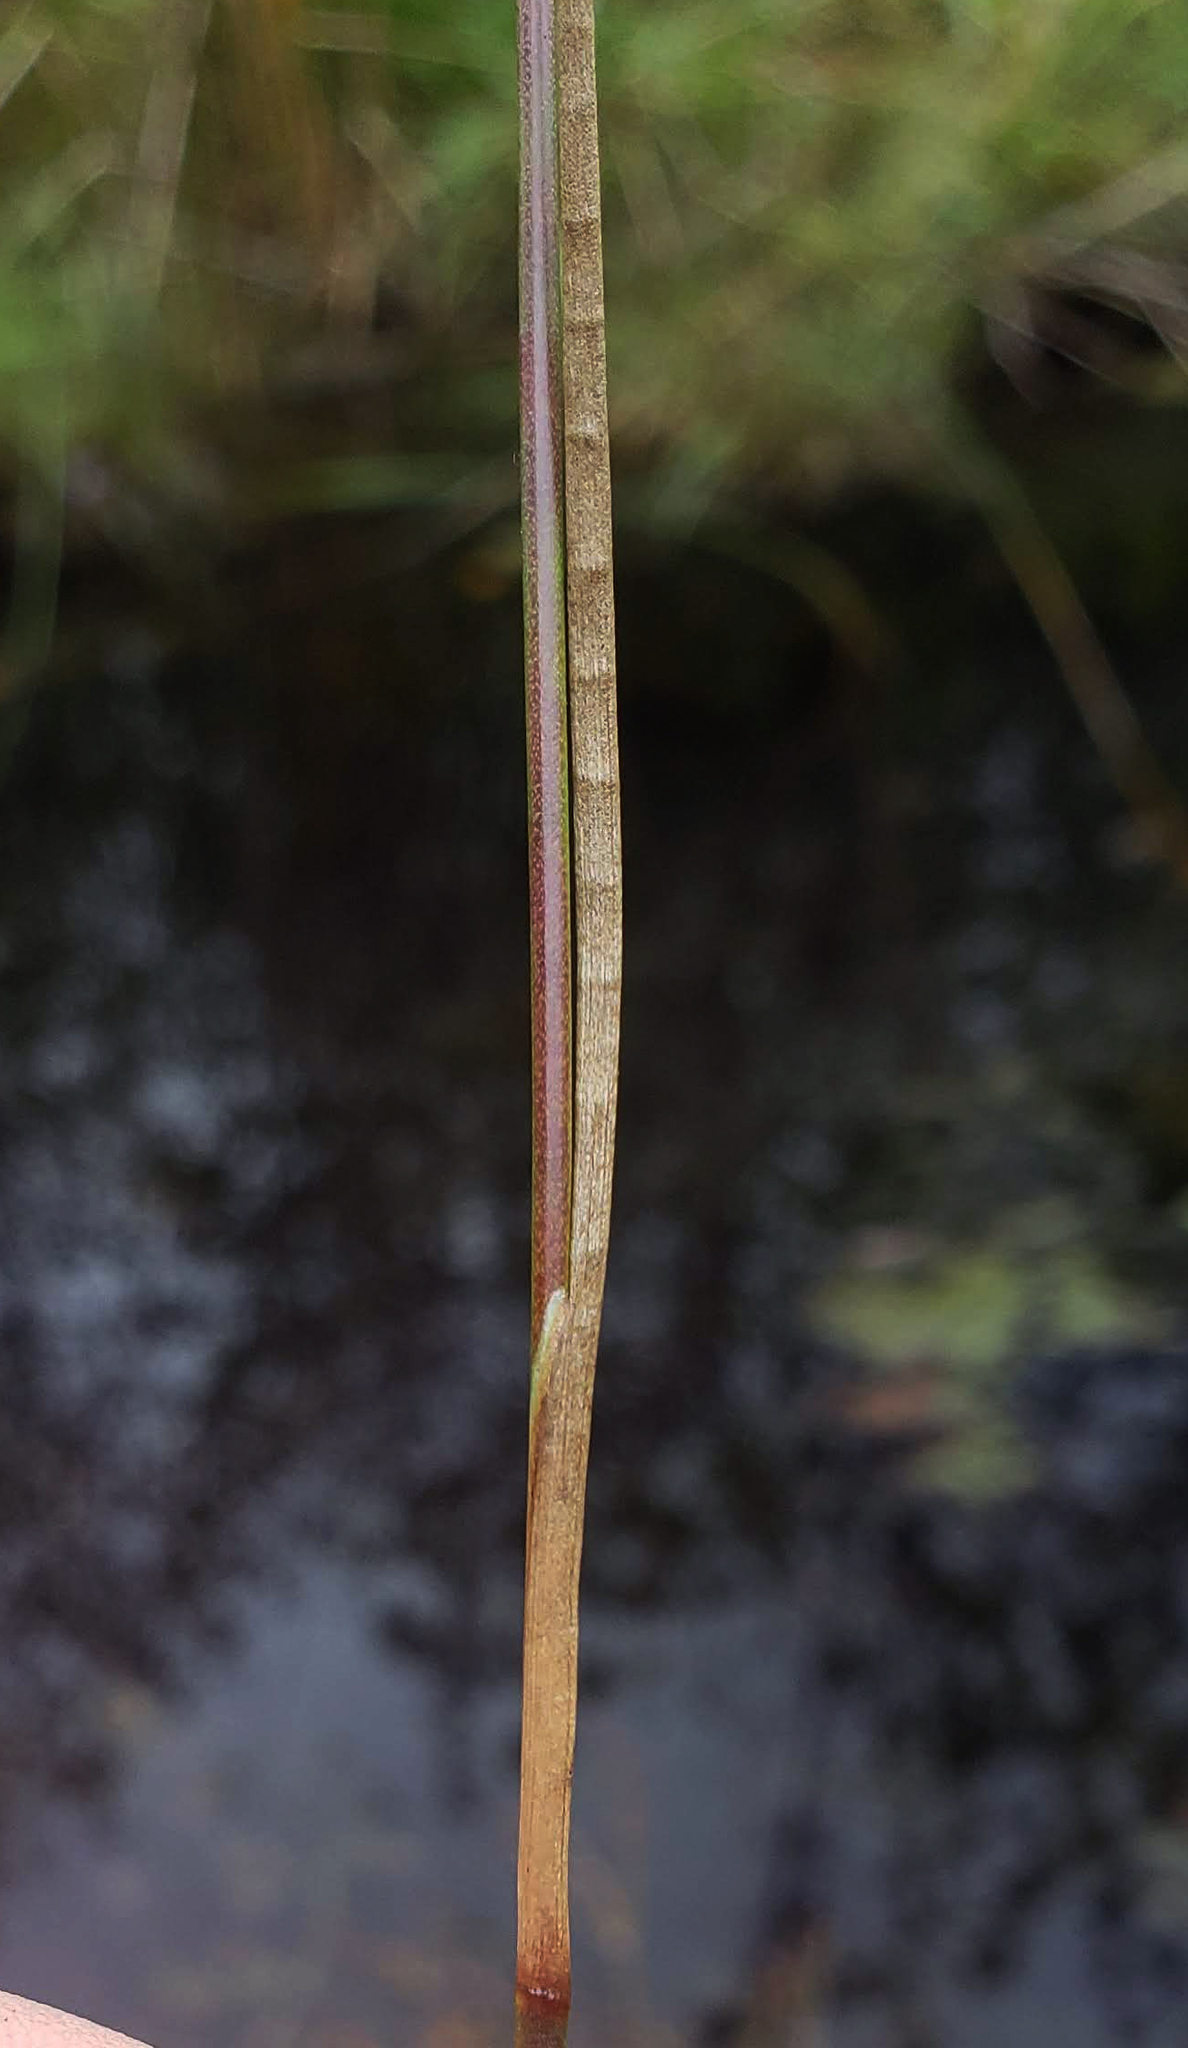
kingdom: Plantae
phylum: Tracheophyta
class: Liliopsida
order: Poales
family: Juncaceae
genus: Juncus
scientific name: Juncus articulatus
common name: Jointed rush
